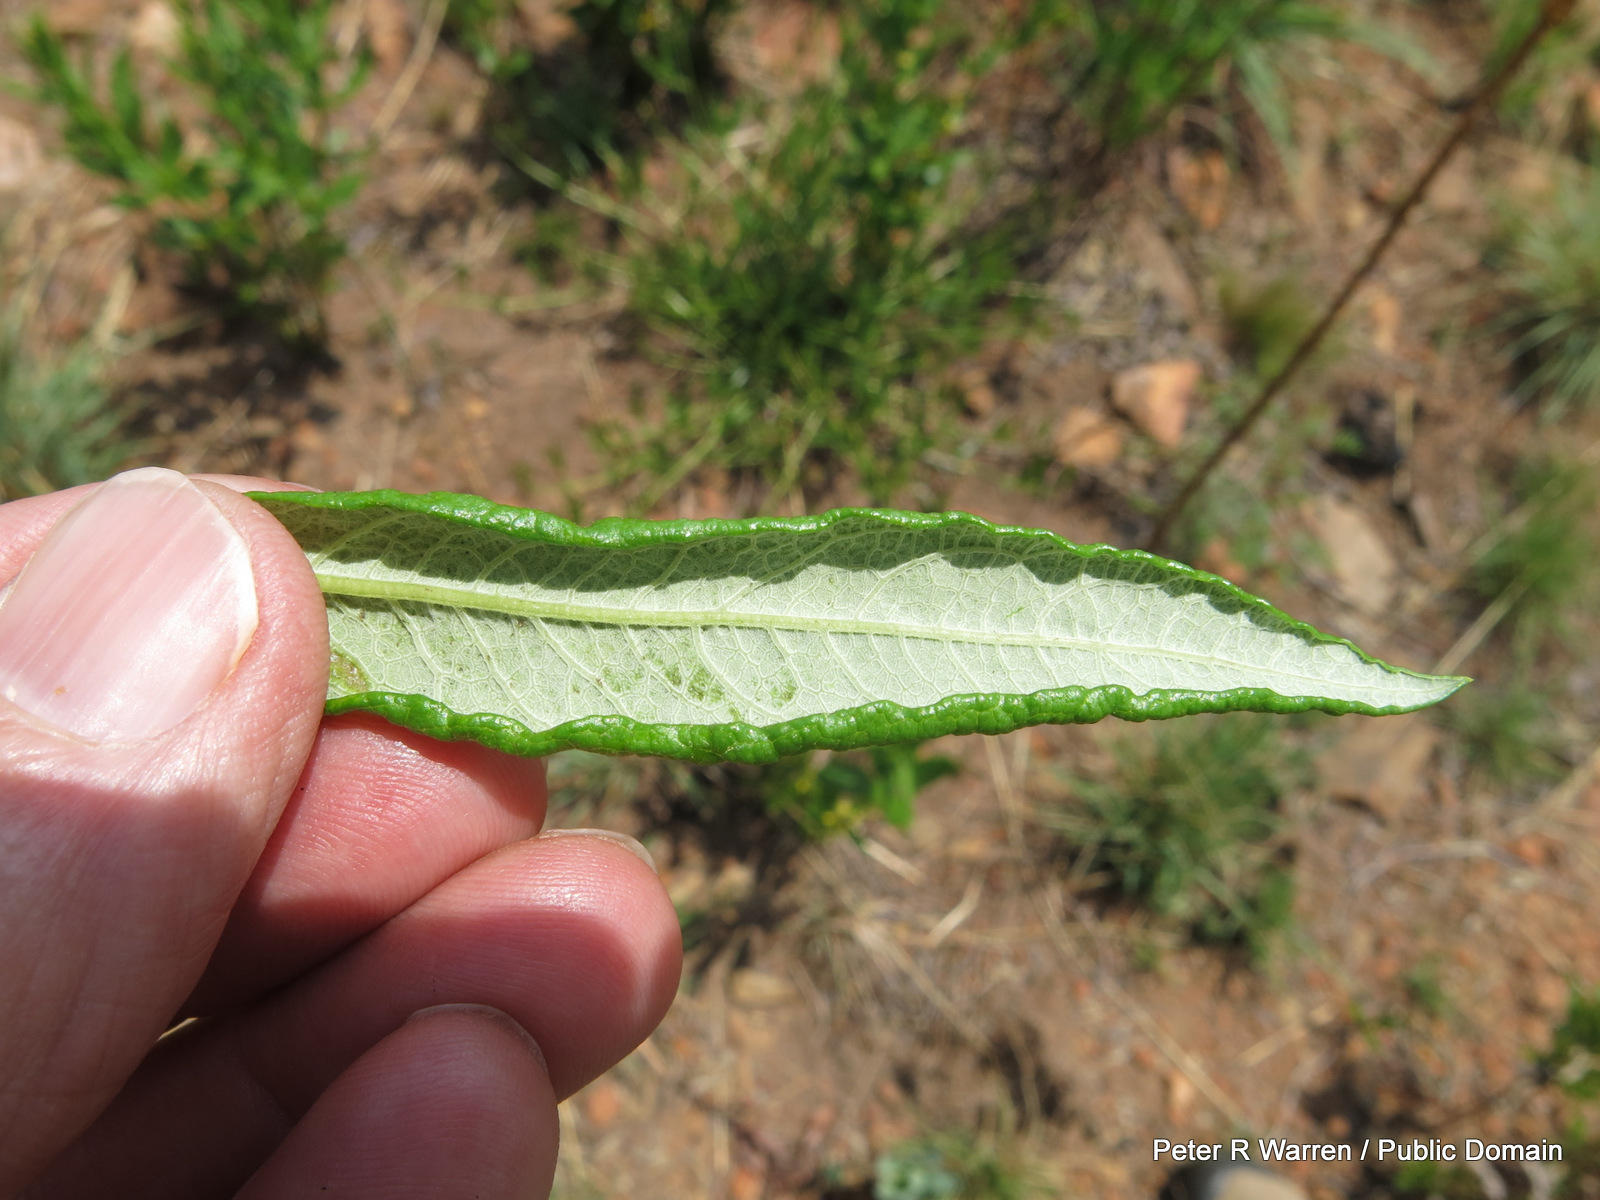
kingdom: Plantae
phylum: Tracheophyta
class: Magnoliopsida
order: Gentianales
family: Rubiaceae
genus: Fadogia
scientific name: Fadogia homblei
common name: Wild date
